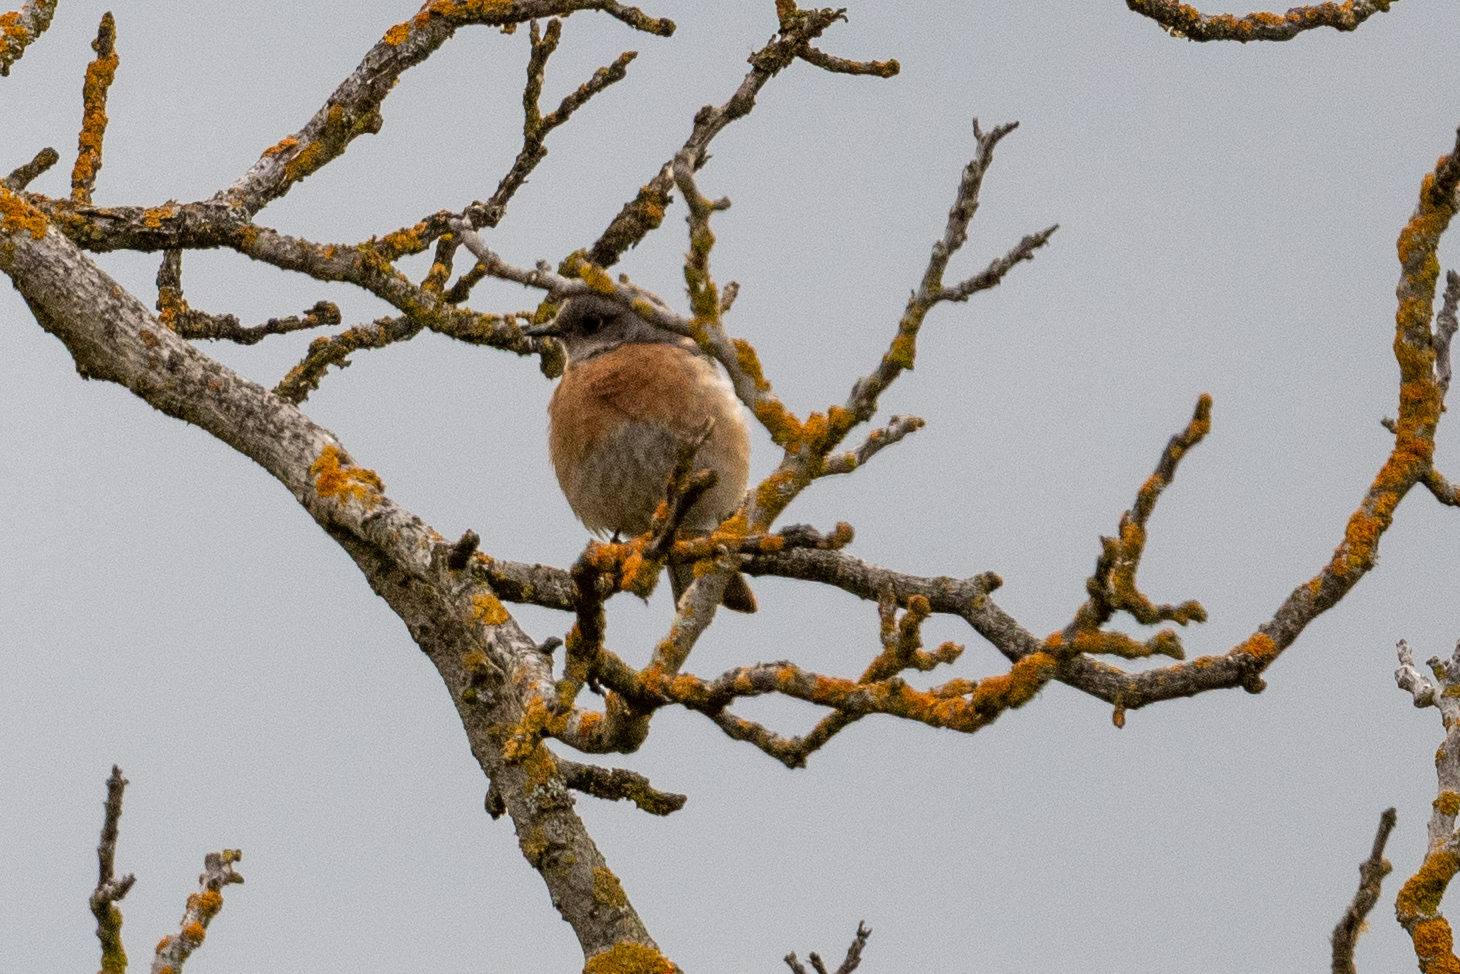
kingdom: Animalia
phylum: Chordata
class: Aves
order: Passeriformes
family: Turdidae
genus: Sialia
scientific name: Sialia mexicana
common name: Western bluebird
